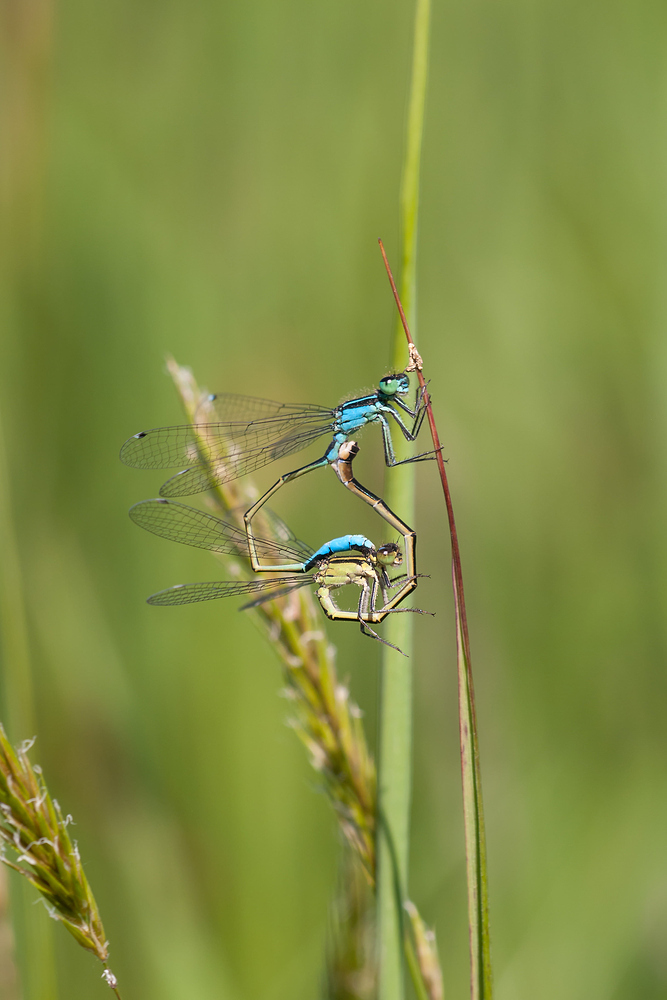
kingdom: Animalia
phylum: Arthropoda
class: Insecta
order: Odonata
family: Coenagrionidae
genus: Ischnura
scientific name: Ischnura elegans
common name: Blue-tailed damselfly
